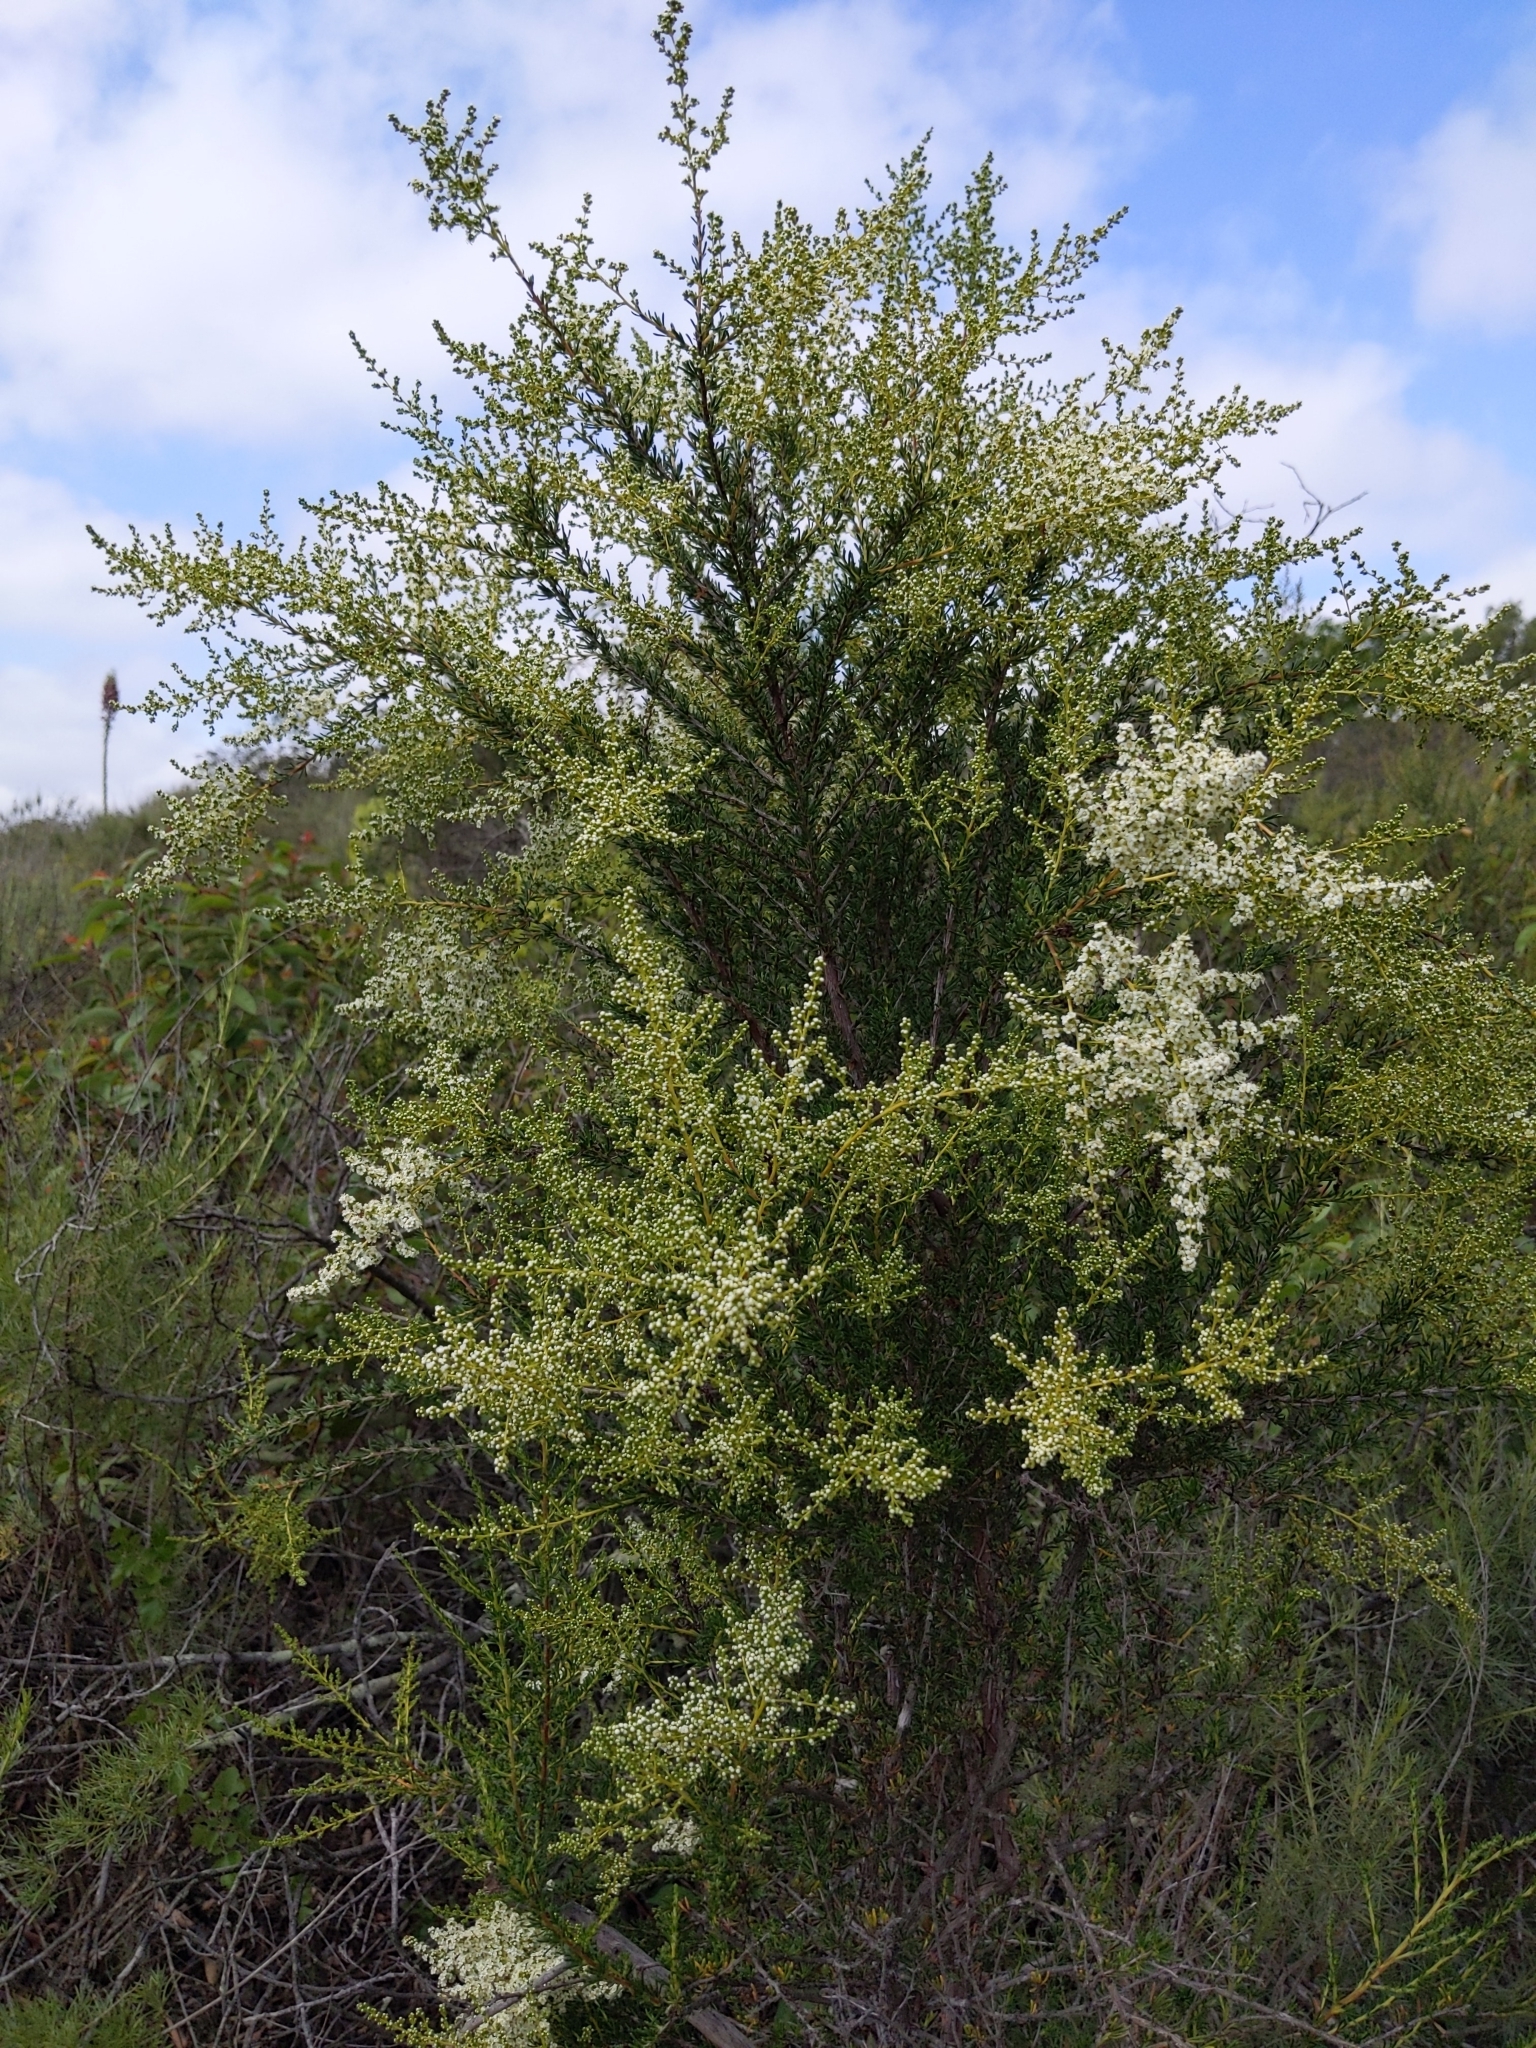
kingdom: Plantae
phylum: Tracheophyta
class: Magnoliopsida
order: Rosales
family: Rosaceae
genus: Adenostoma
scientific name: Adenostoma fasciculatum
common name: Chamise
